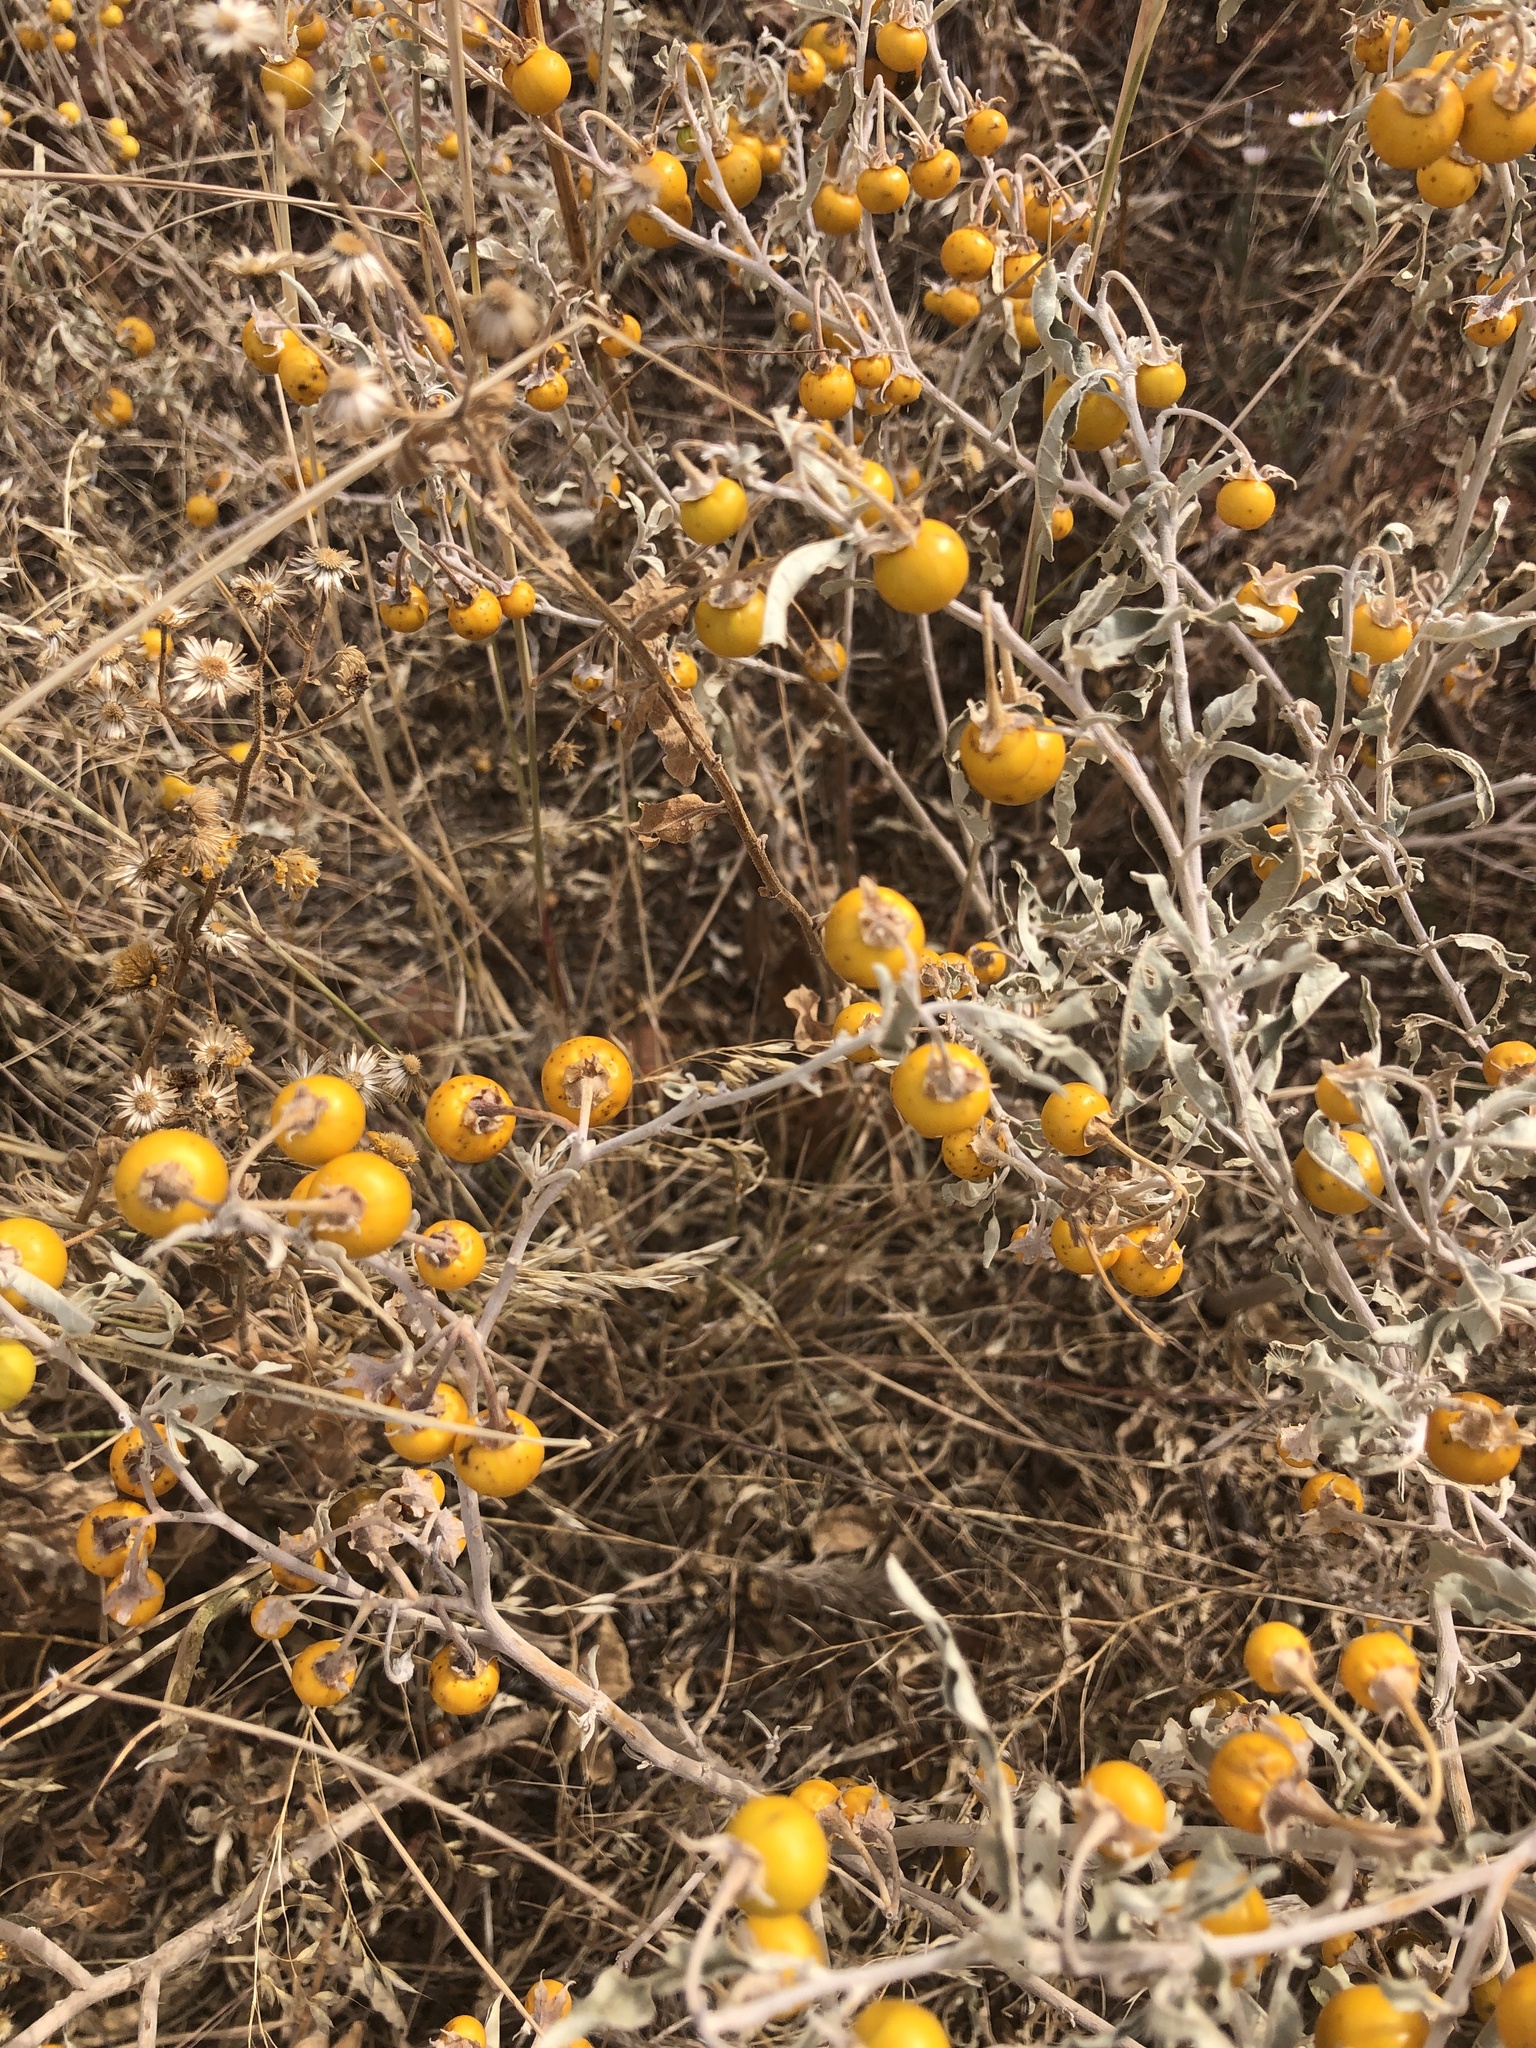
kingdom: Plantae
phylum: Tracheophyta
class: Magnoliopsida
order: Solanales
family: Solanaceae
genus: Solanum
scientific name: Solanum elaeagnifolium
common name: Silverleaf nightshade
